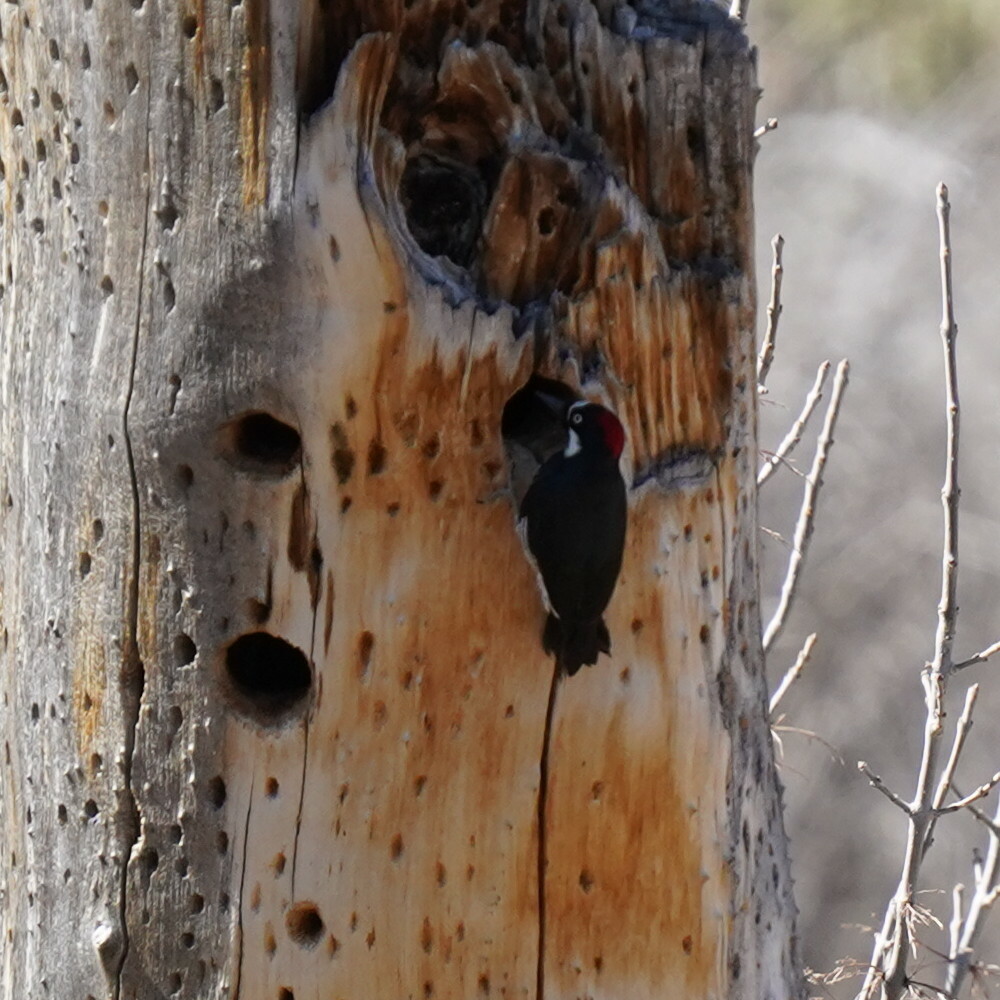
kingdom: Animalia
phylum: Chordata
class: Aves
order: Piciformes
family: Picidae
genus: Melanerpes
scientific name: Melanerpes formicivorus
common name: Acorn woodpecker
